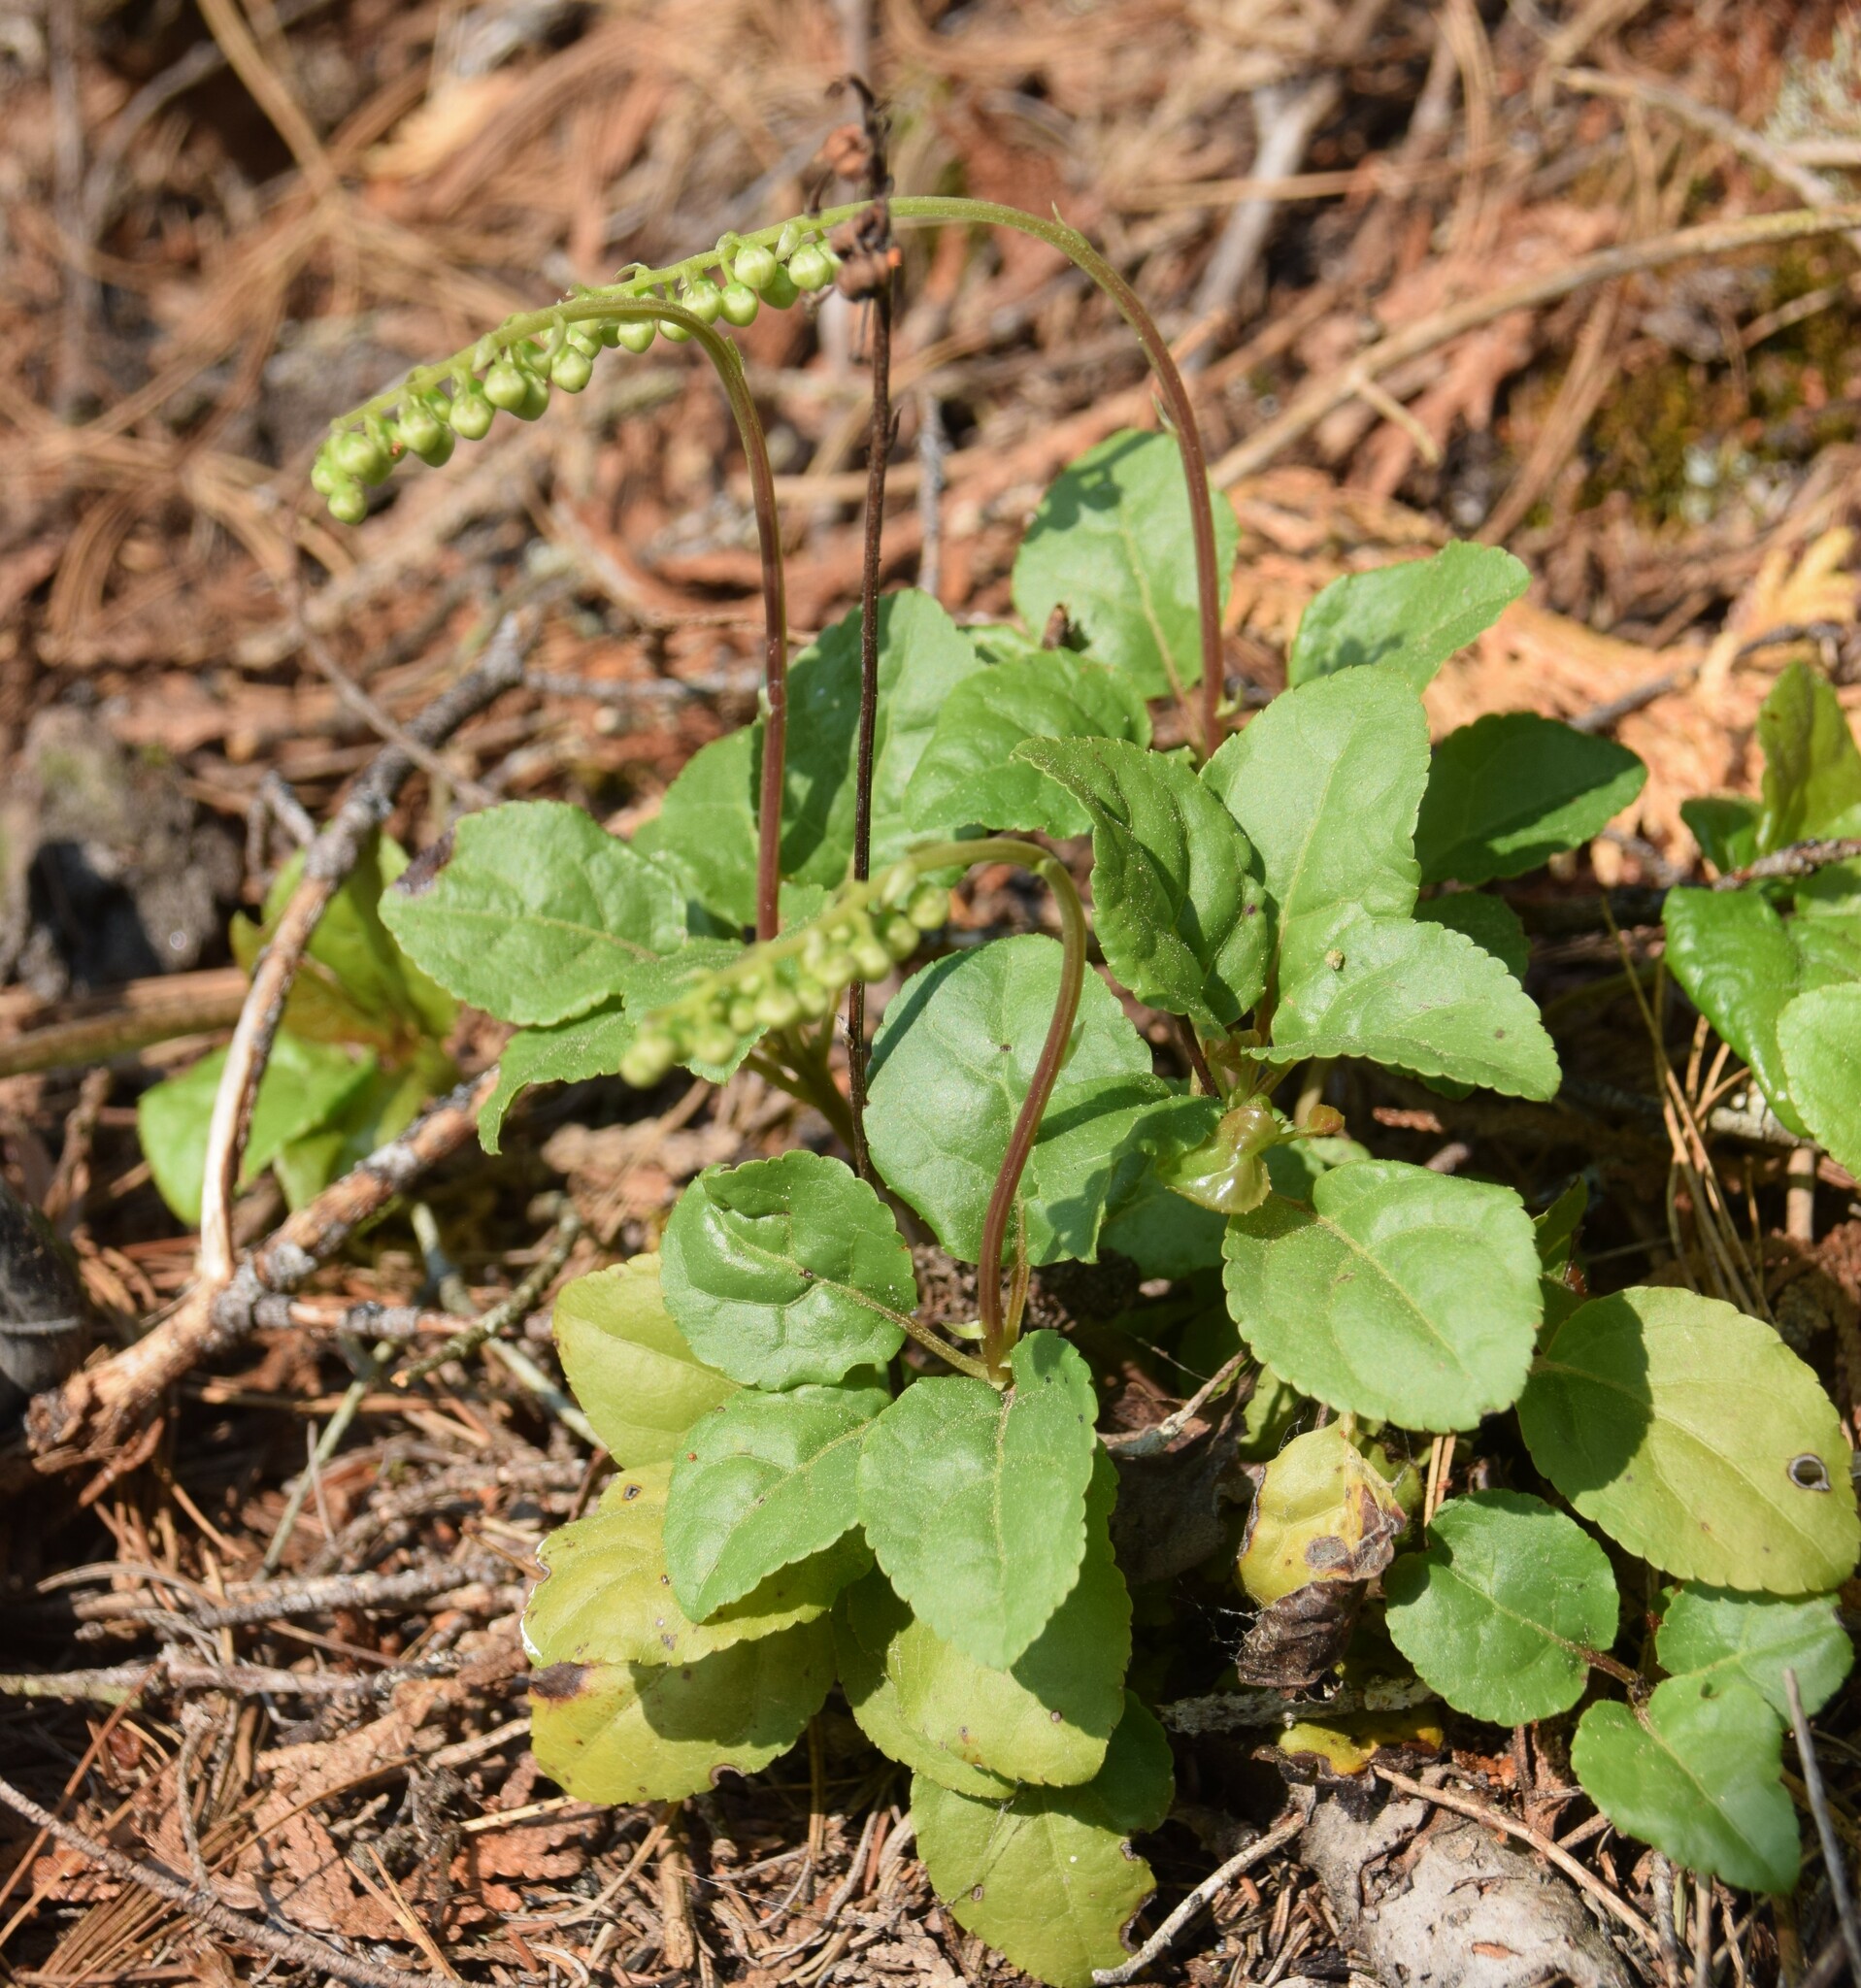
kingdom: Plantae
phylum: Tracheophyta
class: Magnoliopsida
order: Ericales
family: Ericaceae
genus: Orthilia
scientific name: Orthilia secunda
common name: One-sided orthilia
